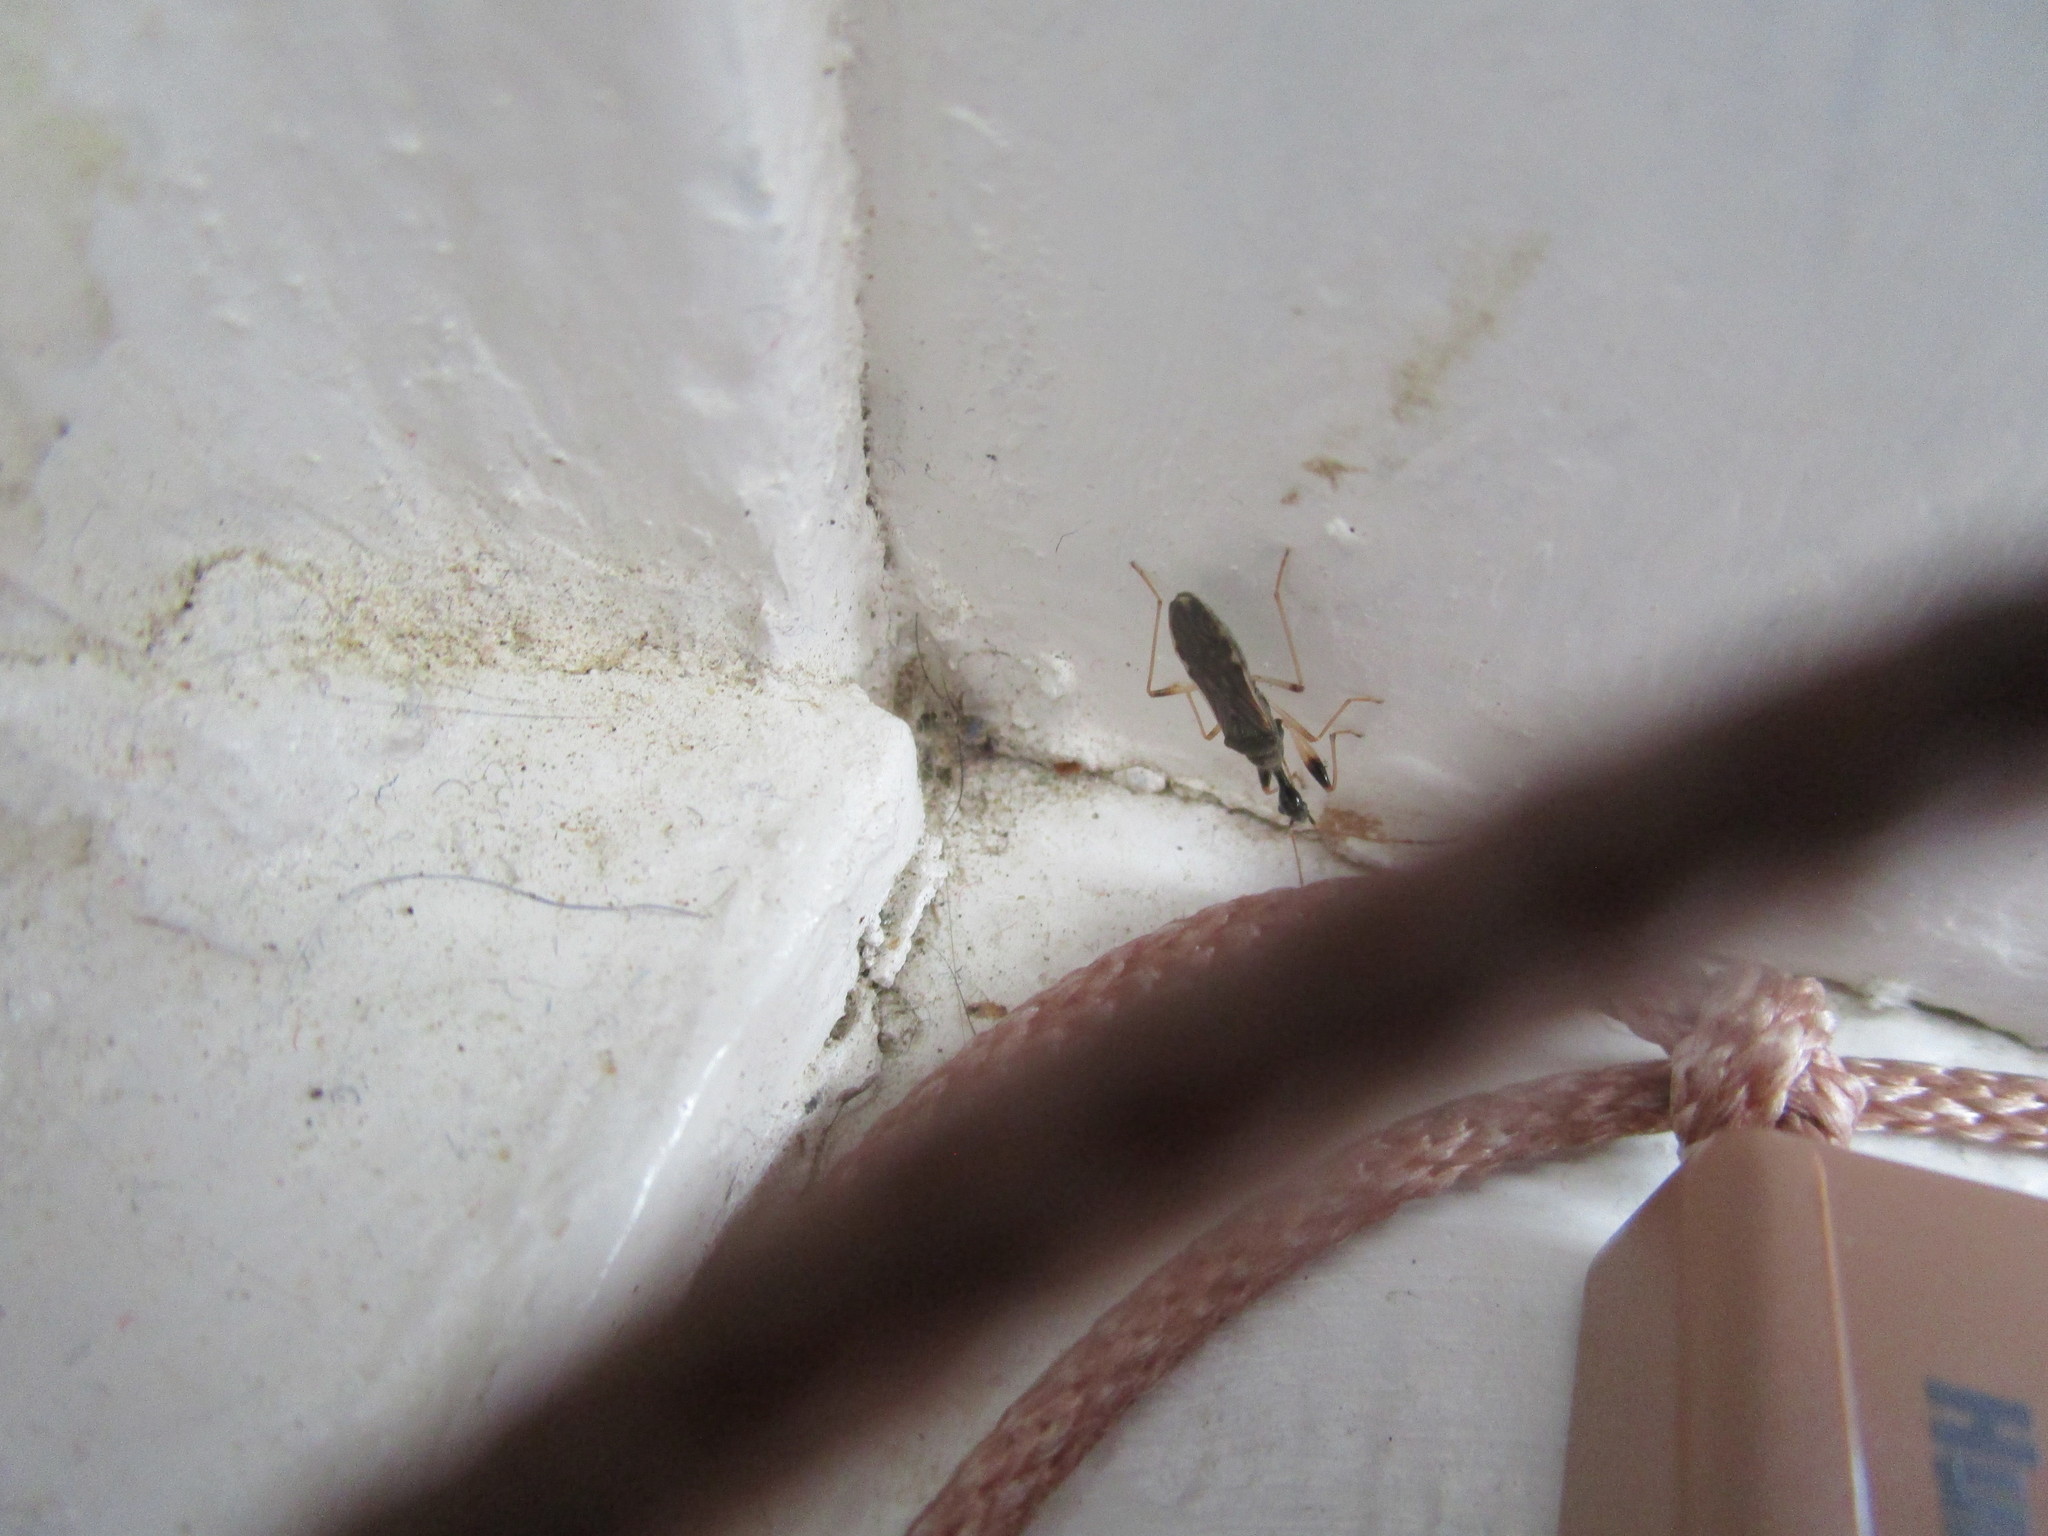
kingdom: Animalia
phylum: Arthropoda
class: Insecta
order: Hemiptera
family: Rhyparochromidae
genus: Myodocha
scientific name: Myodocha serripes
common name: Long-necked seed bug
